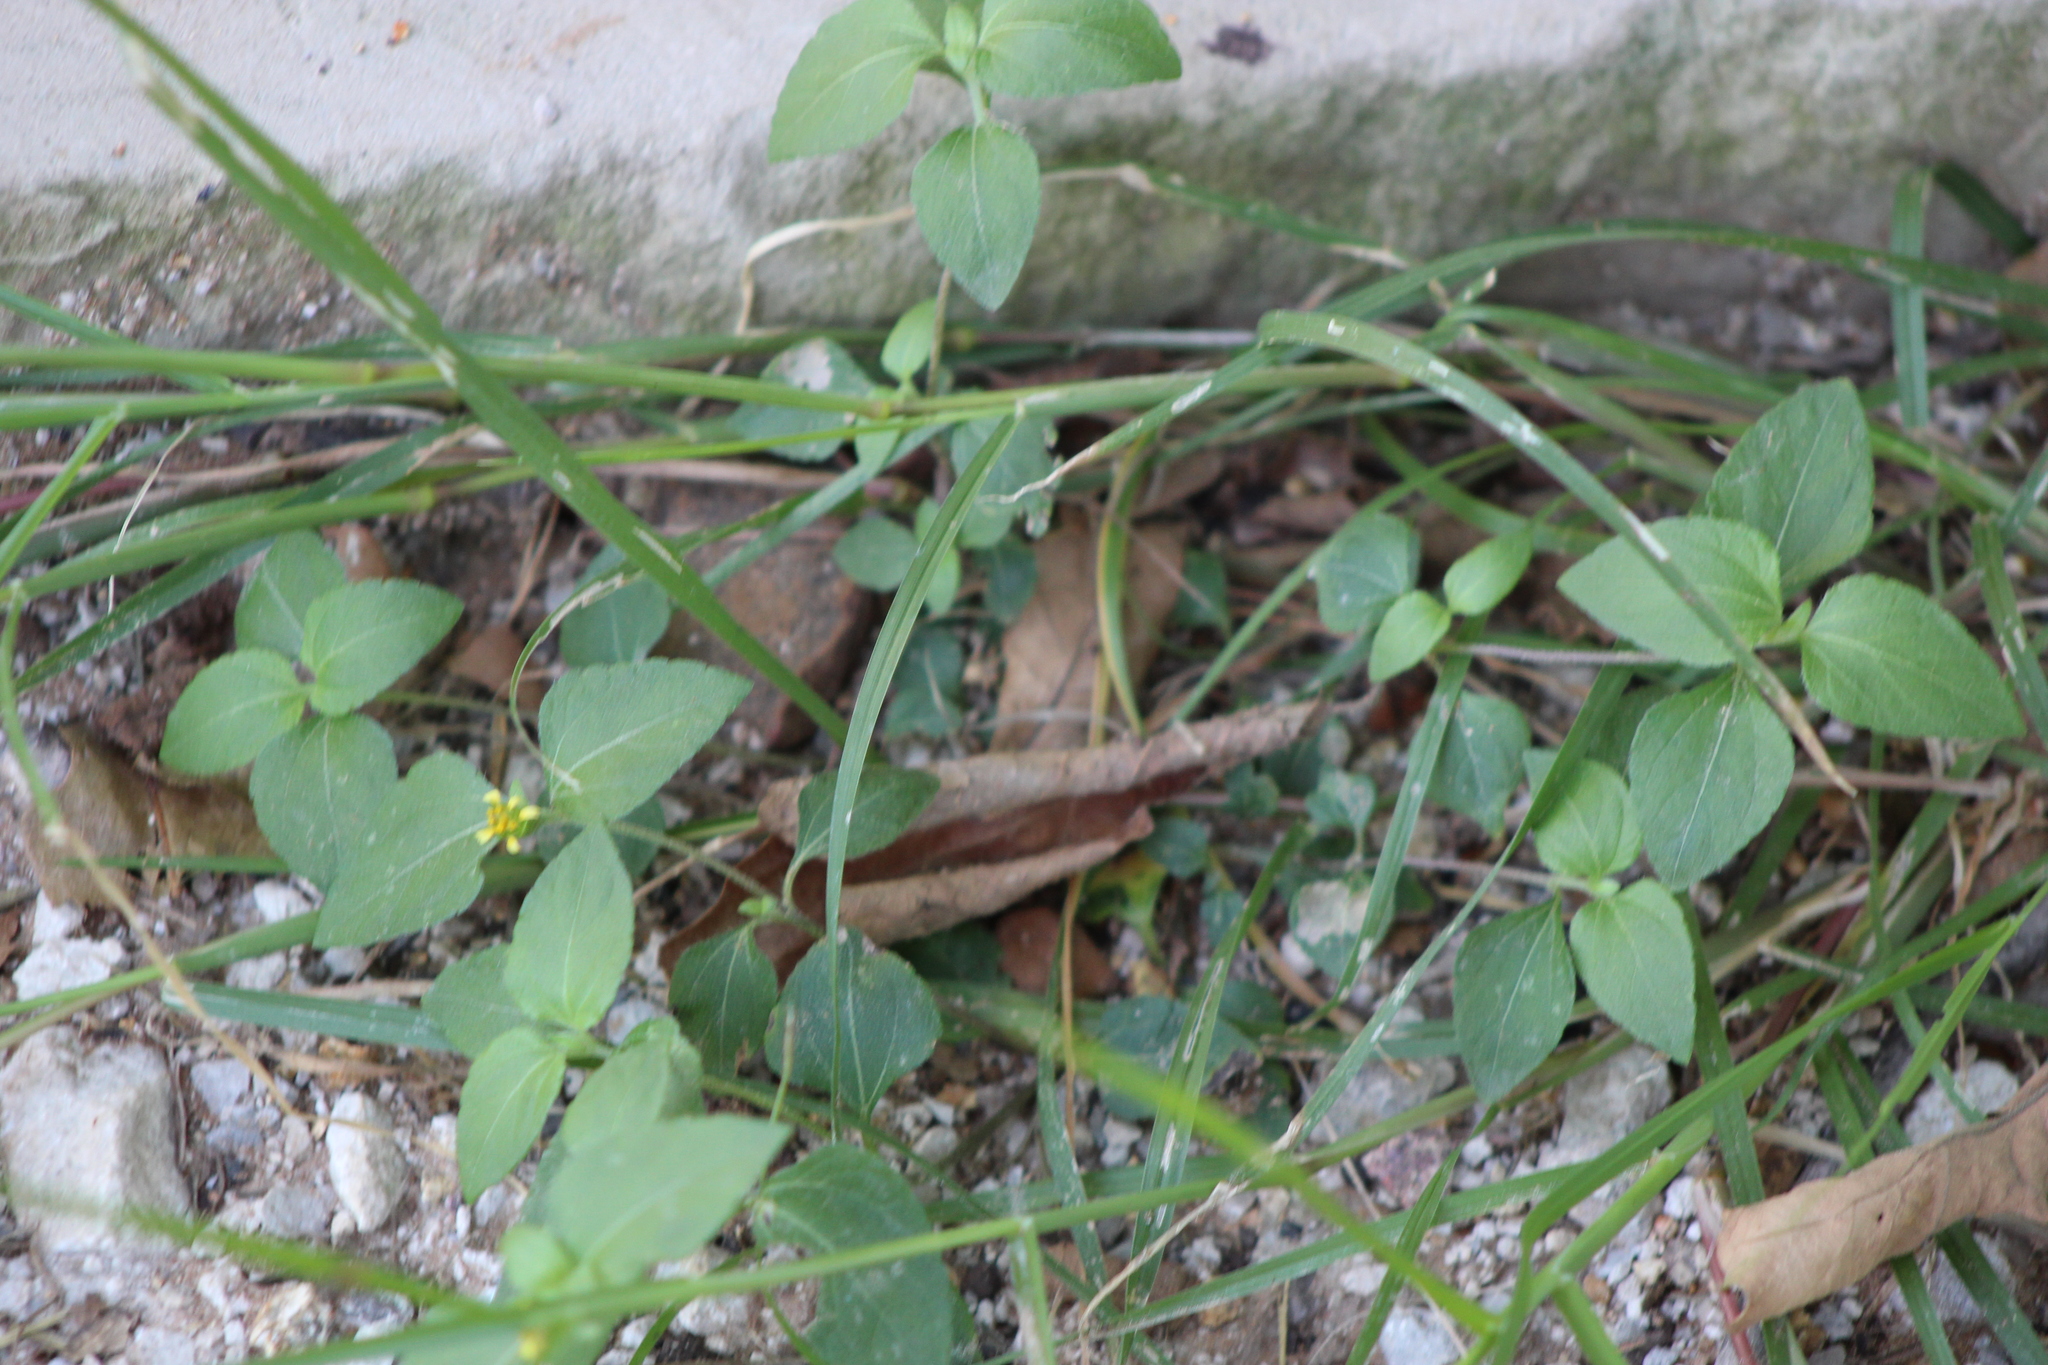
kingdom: Plantae
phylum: Tracheophyta
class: Magnoliopsida
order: Asterales
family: Asteraceae
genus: Calyptocarpus
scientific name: Calyptocarpus vialis
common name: Straggler daisy
